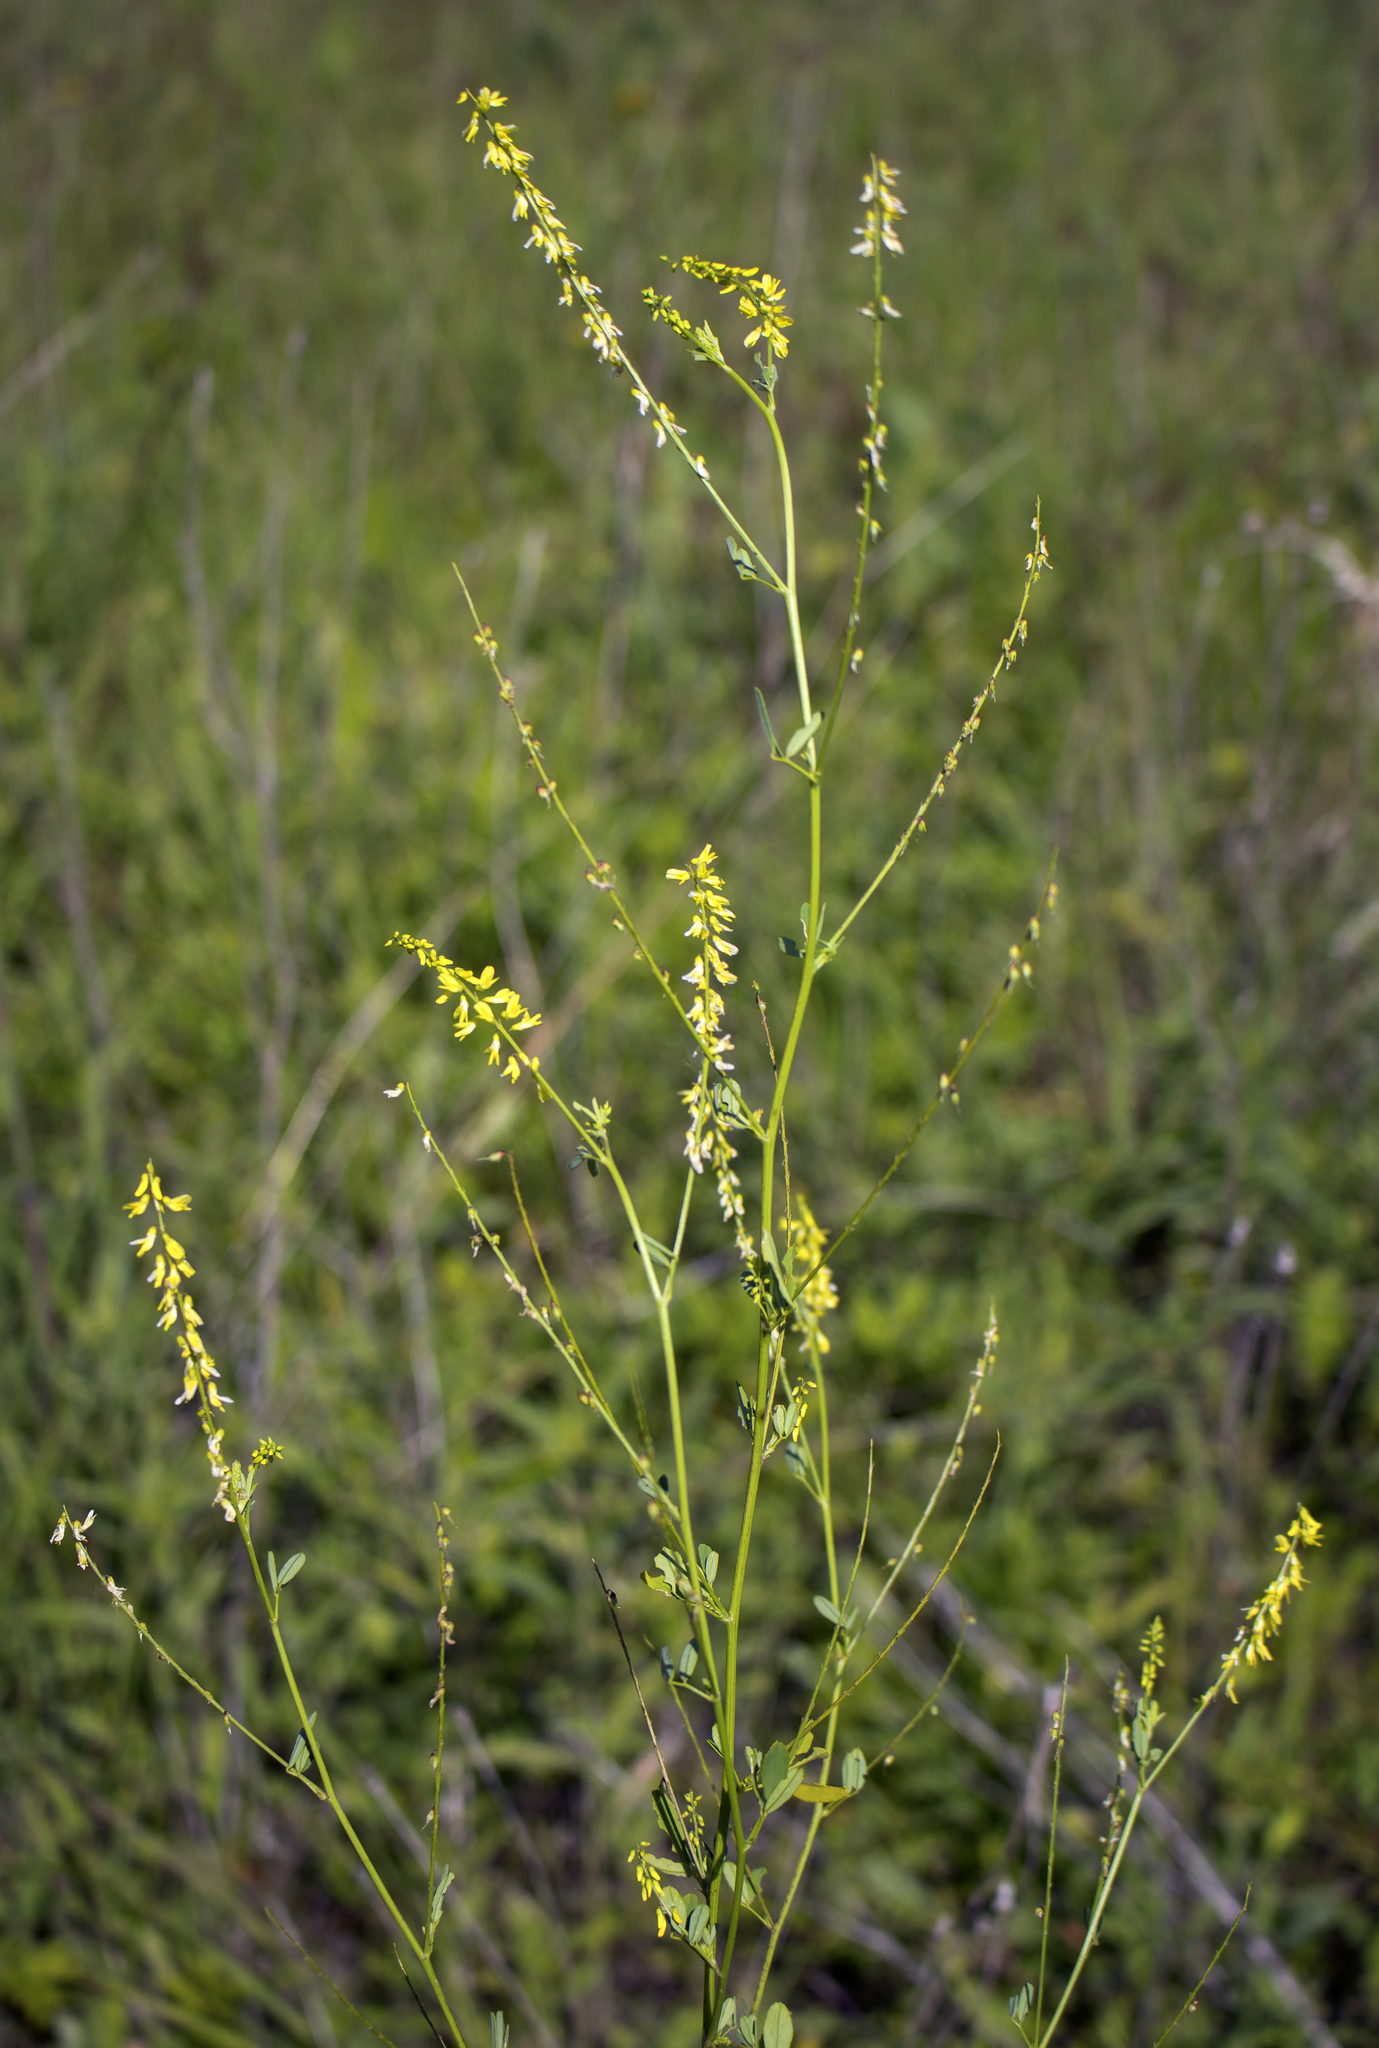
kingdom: Plantae
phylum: Tracheophyta
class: Magnoliopsida
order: Fabales
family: Fabaceae
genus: Melilotus
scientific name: Melilotus officinalis
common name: Sweetclover
